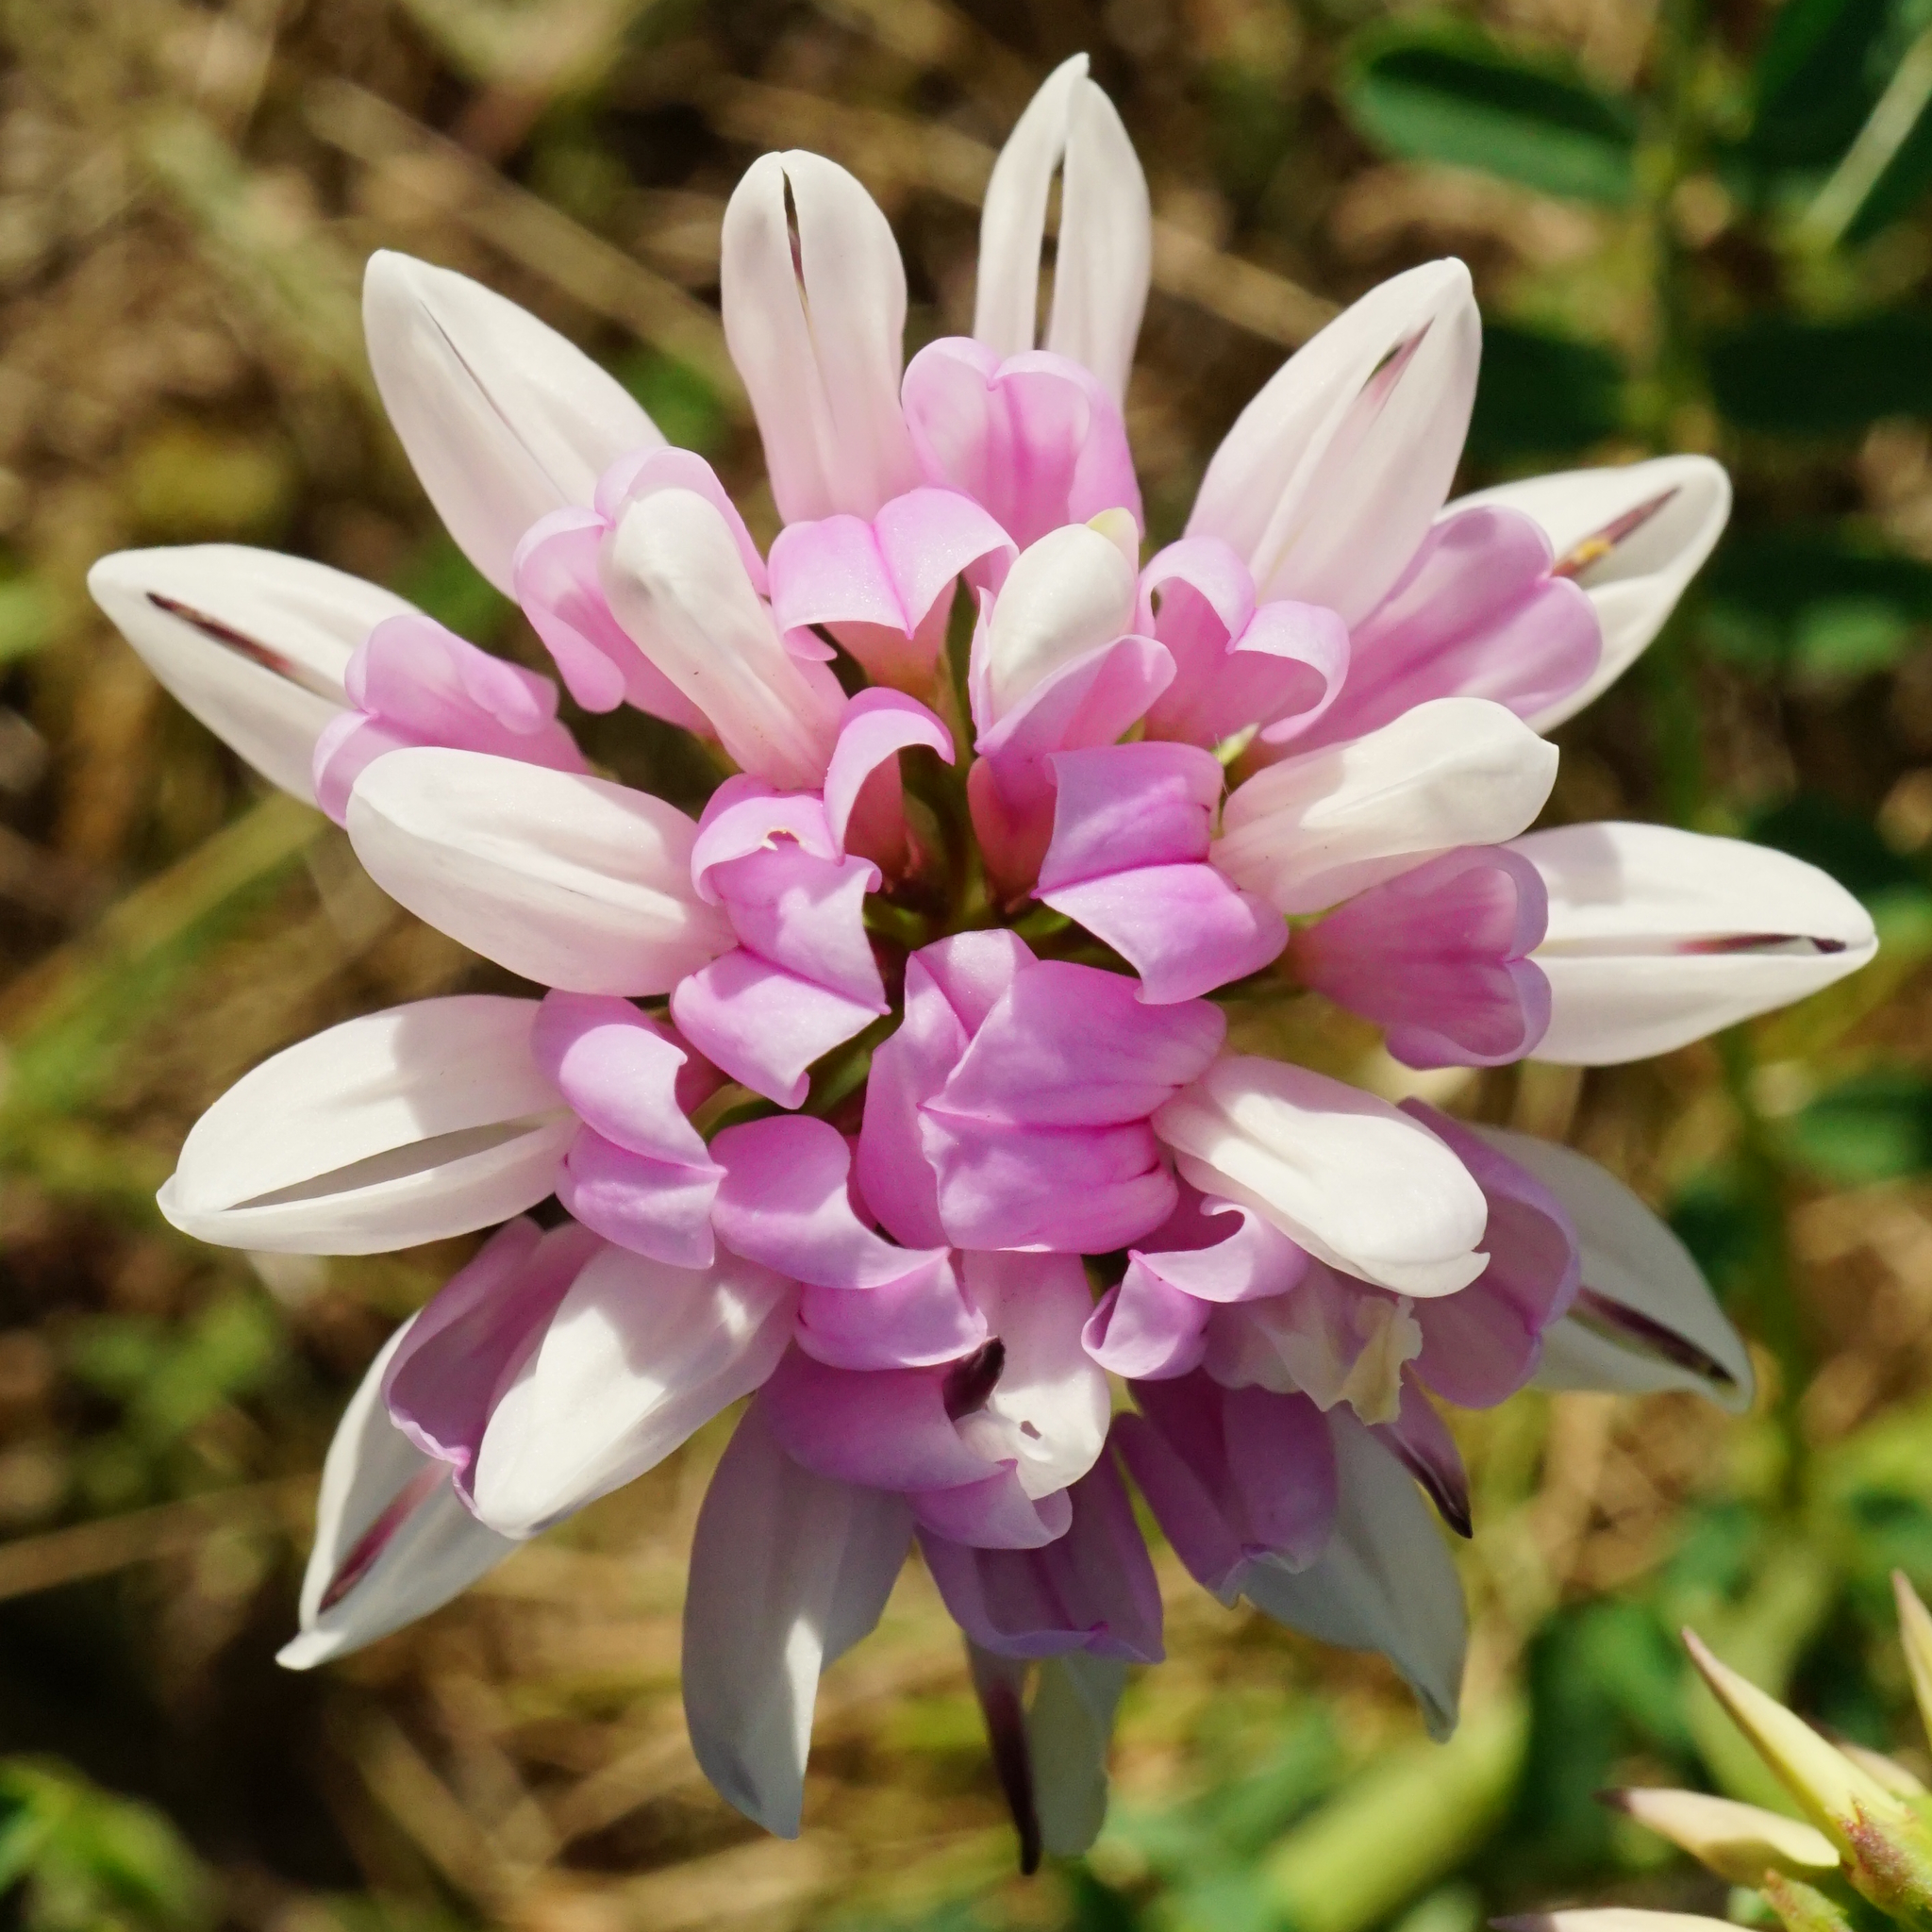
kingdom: Plantae
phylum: Tracheophyta
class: Magnoliopsida
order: Fabales
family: Fabaceae
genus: Coronilla
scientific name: Coronilla varia
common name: Crownvetch
